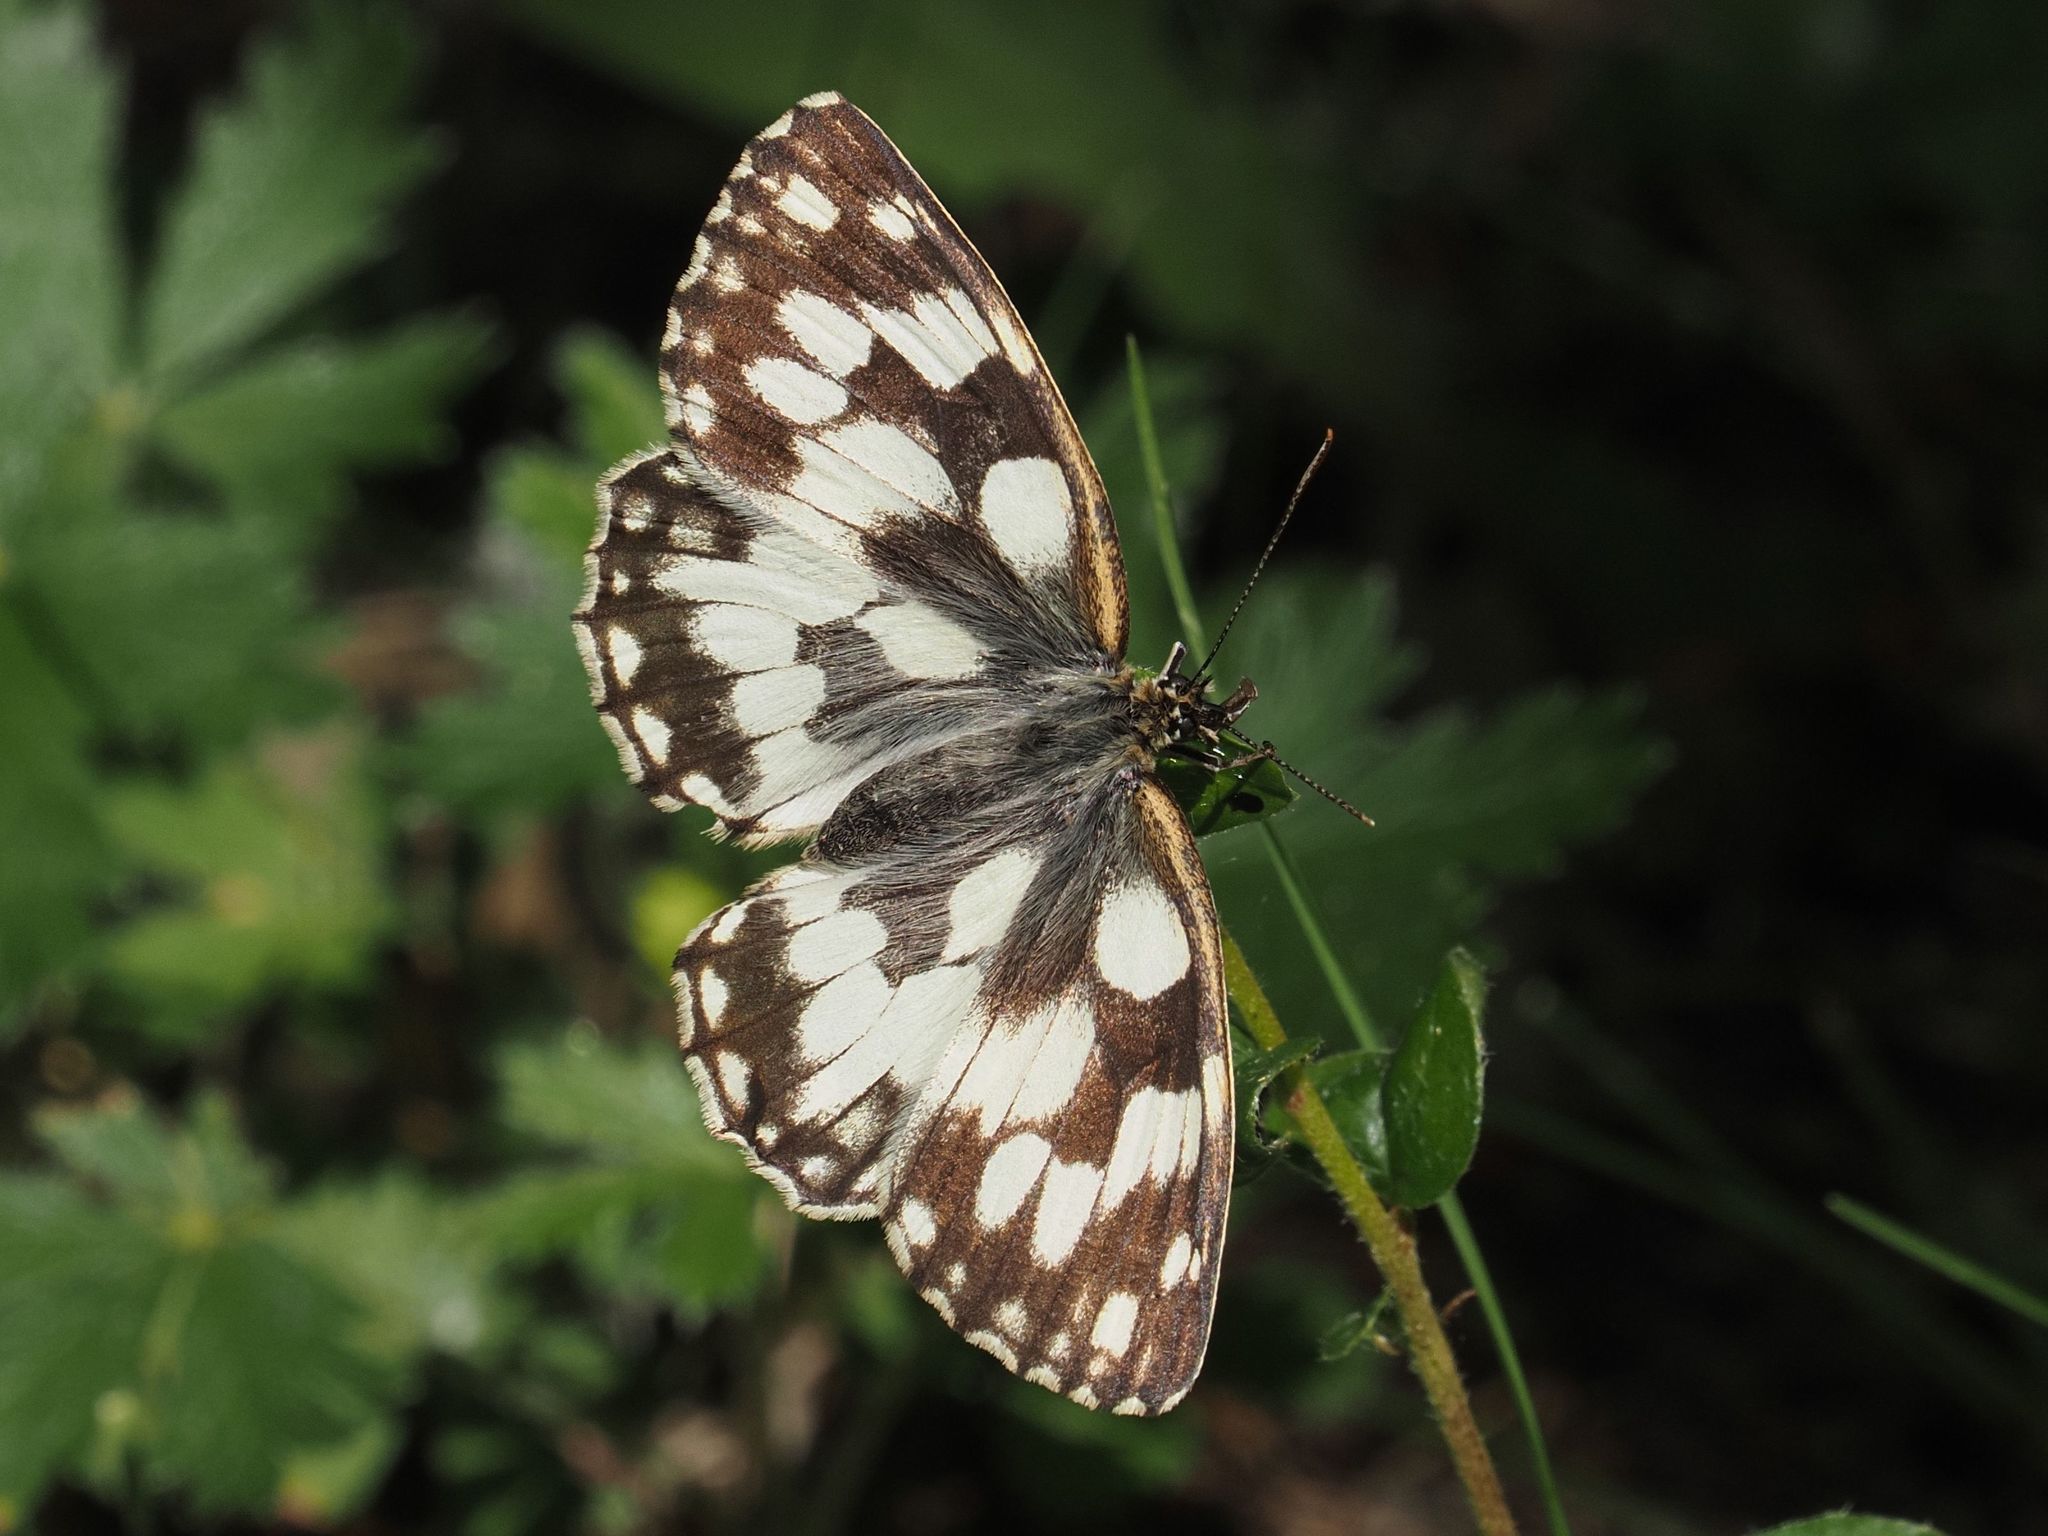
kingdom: Animalia
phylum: Arthropoda
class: Insecta
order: Lepidoptera
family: Nymphalidae
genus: Melanargia
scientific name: Melanargia galathea
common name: Marbled white
